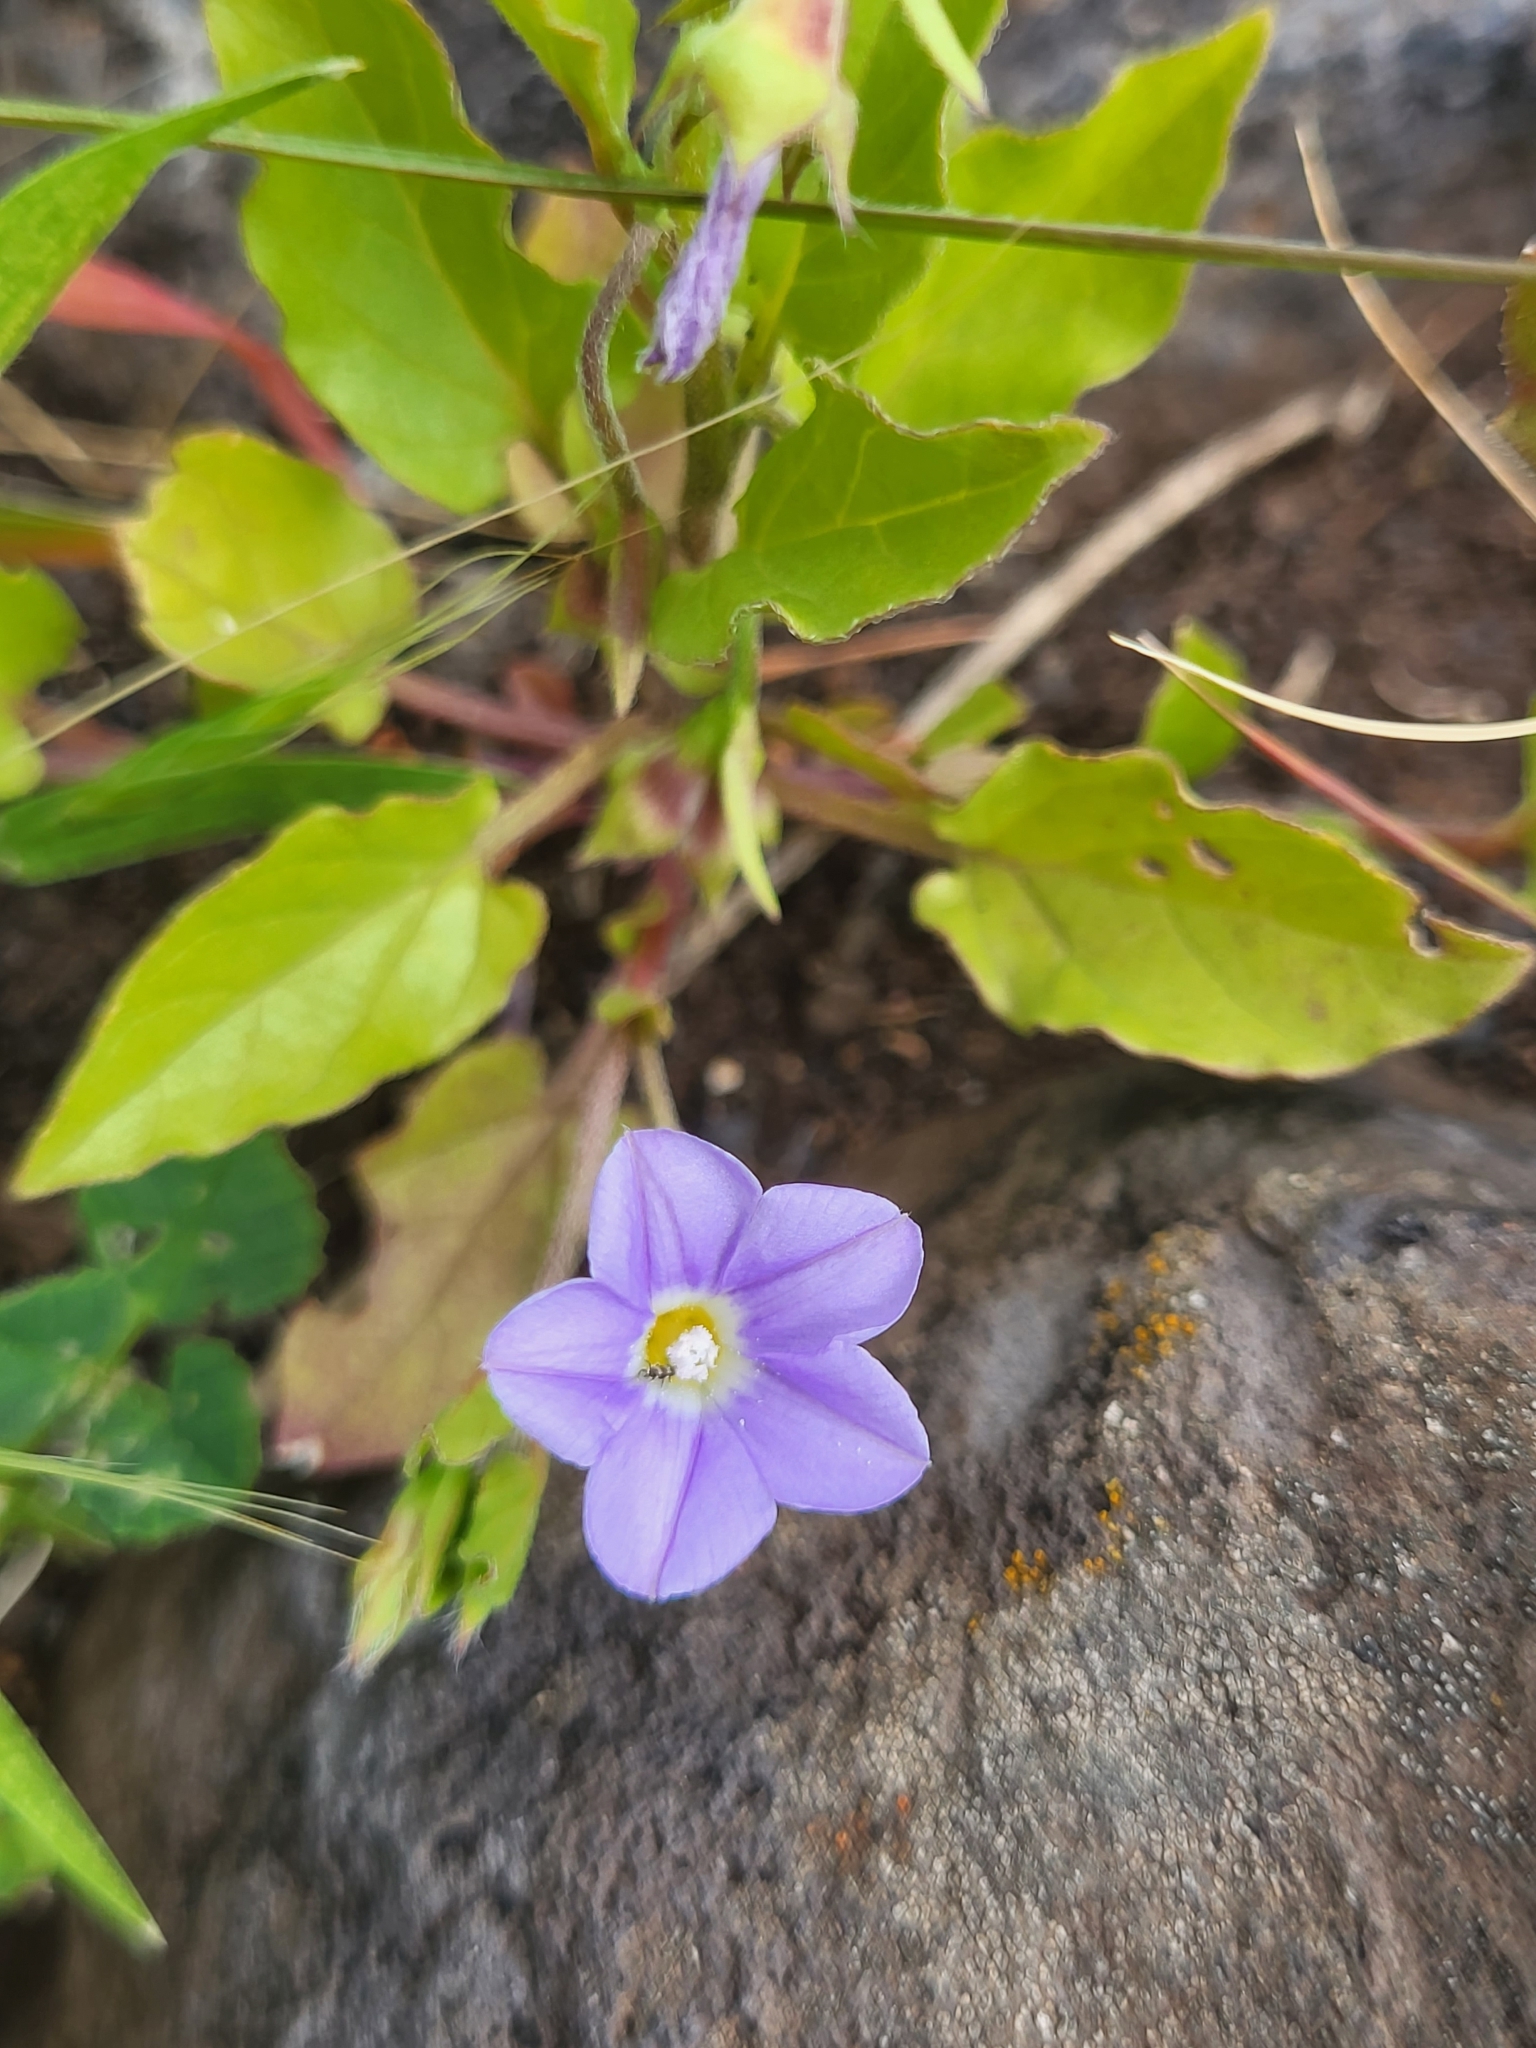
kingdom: Plantae
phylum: Tracheophyta
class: Magnoliopsida
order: Solanales
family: Convolvulaceae
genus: Convolvulus
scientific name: Convolvulus siculus
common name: Small blue-convolvulus
